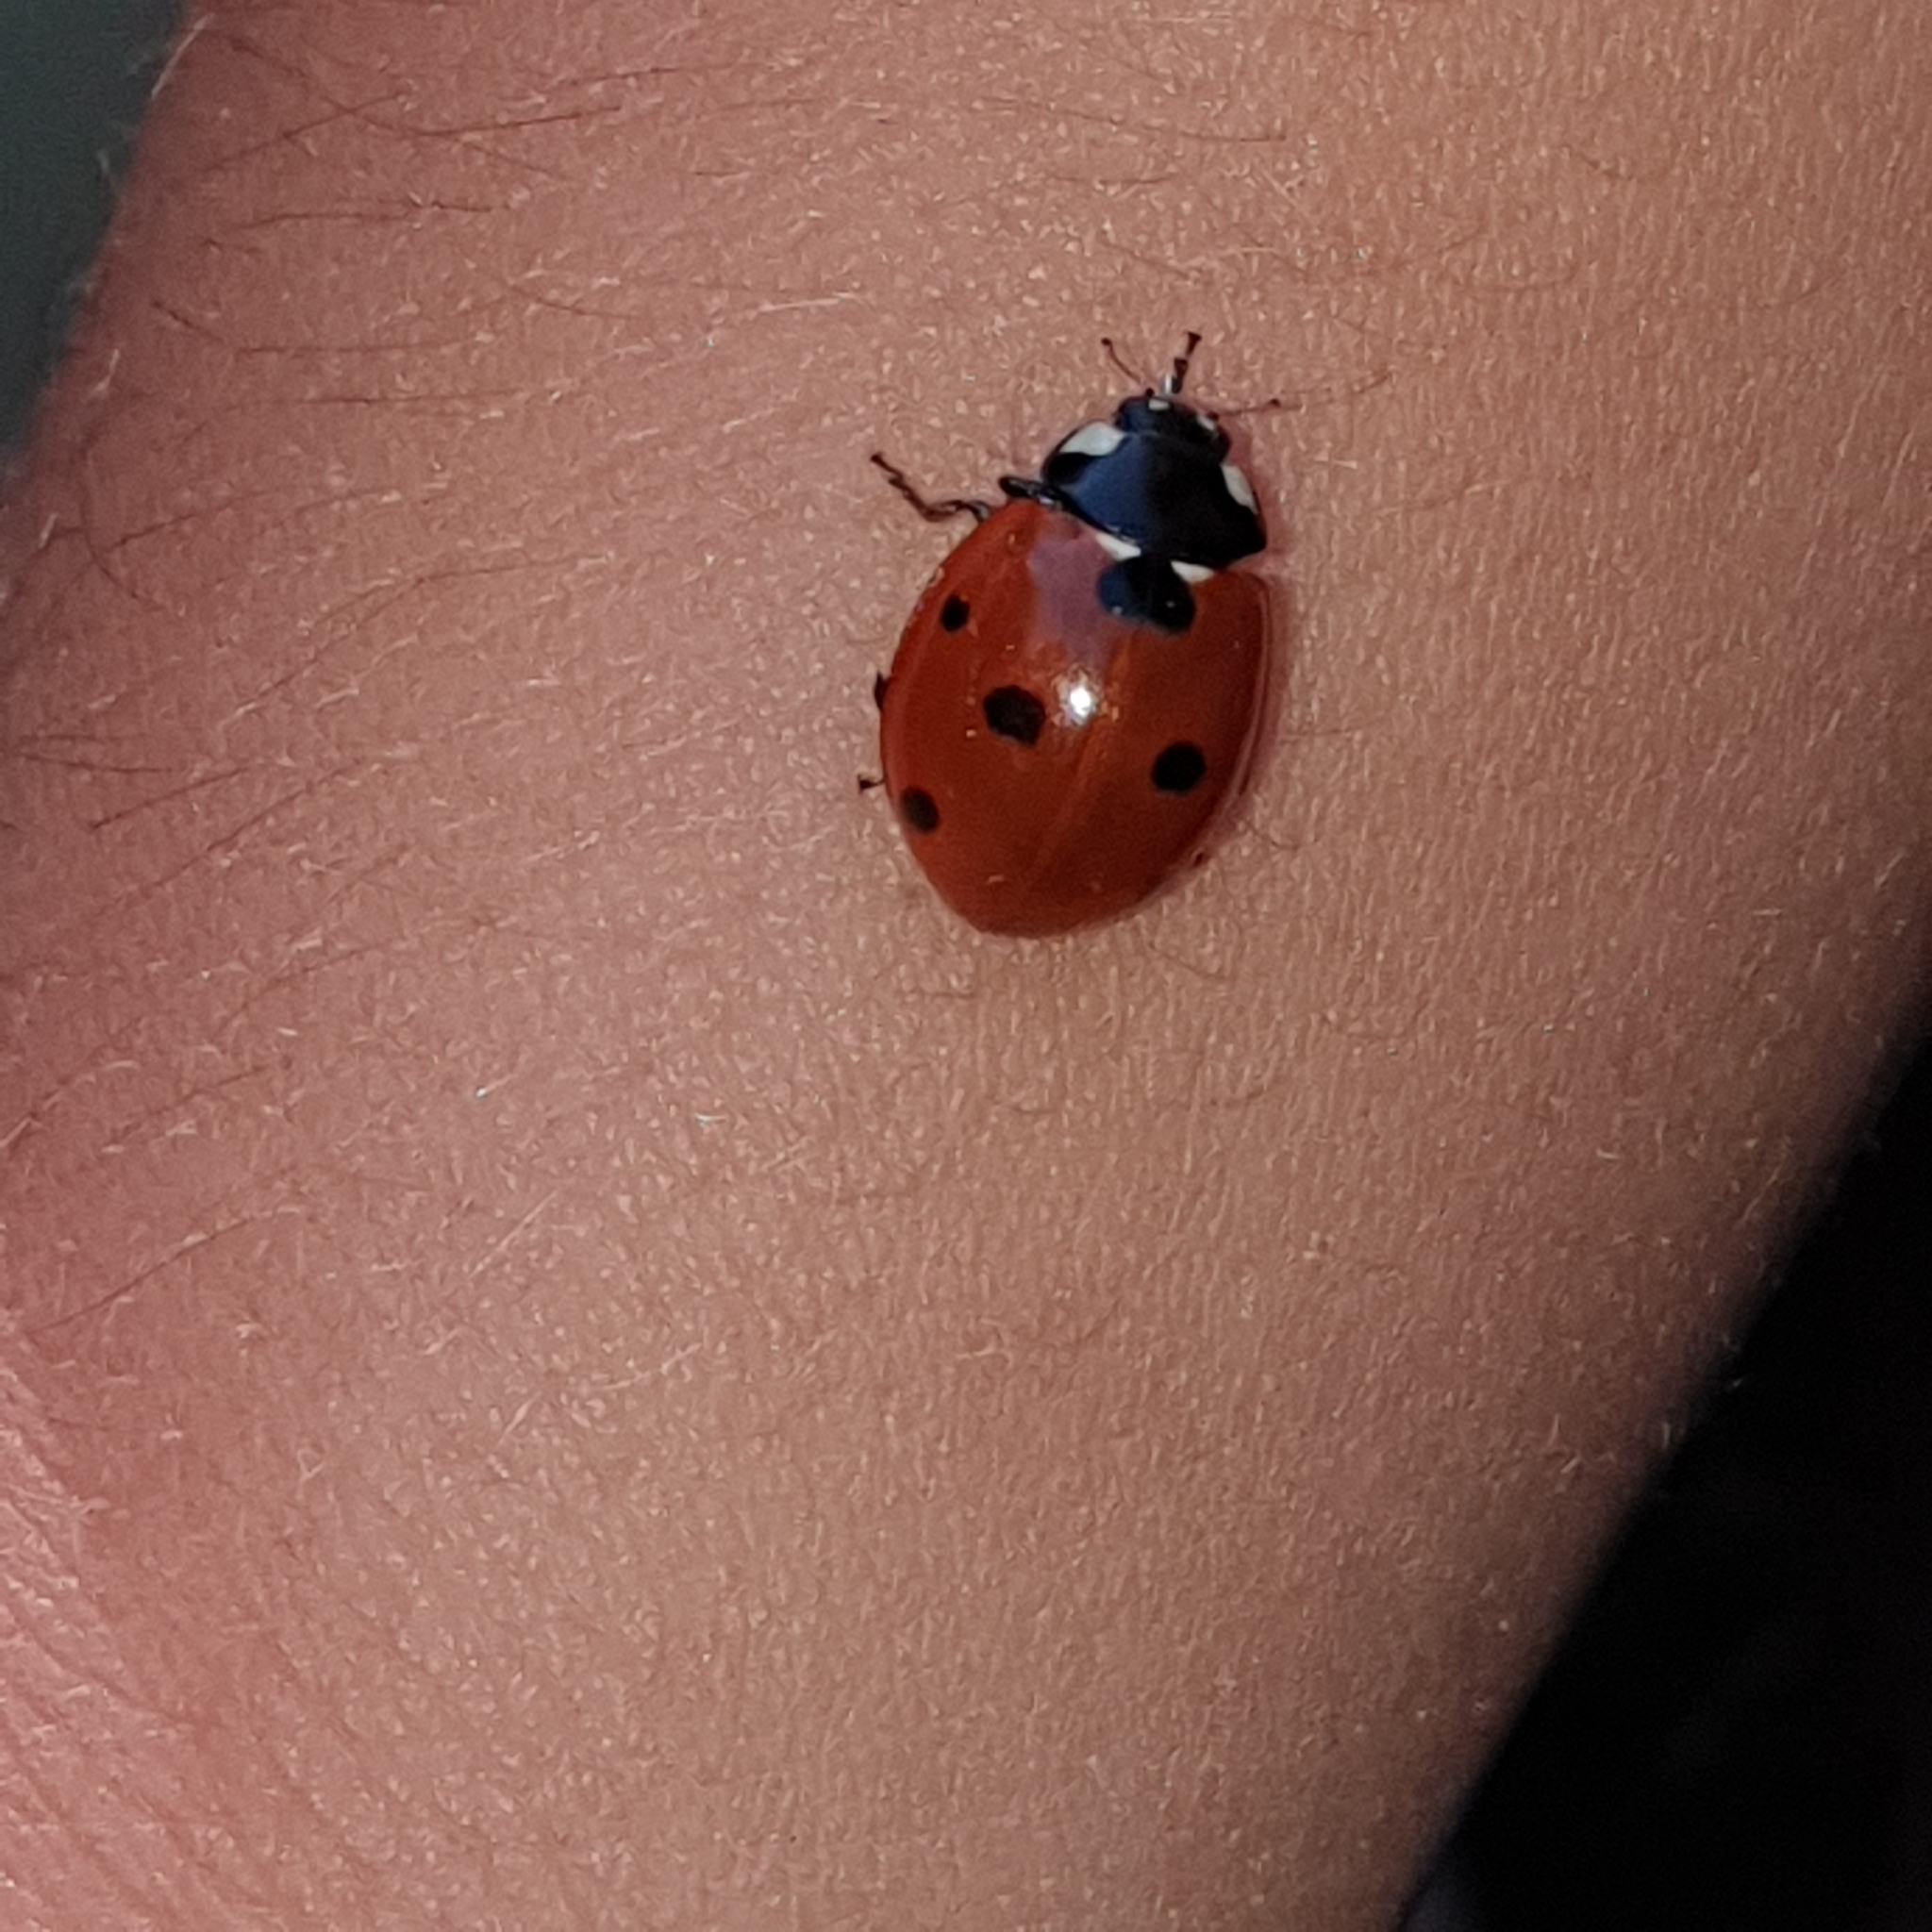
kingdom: Animalia
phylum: Arthropoda
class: Insecta
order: Coleoptera
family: Coccinellidae
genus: Coccinella
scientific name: Coccinella septempunctata
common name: Sevenspotted lady beetle
